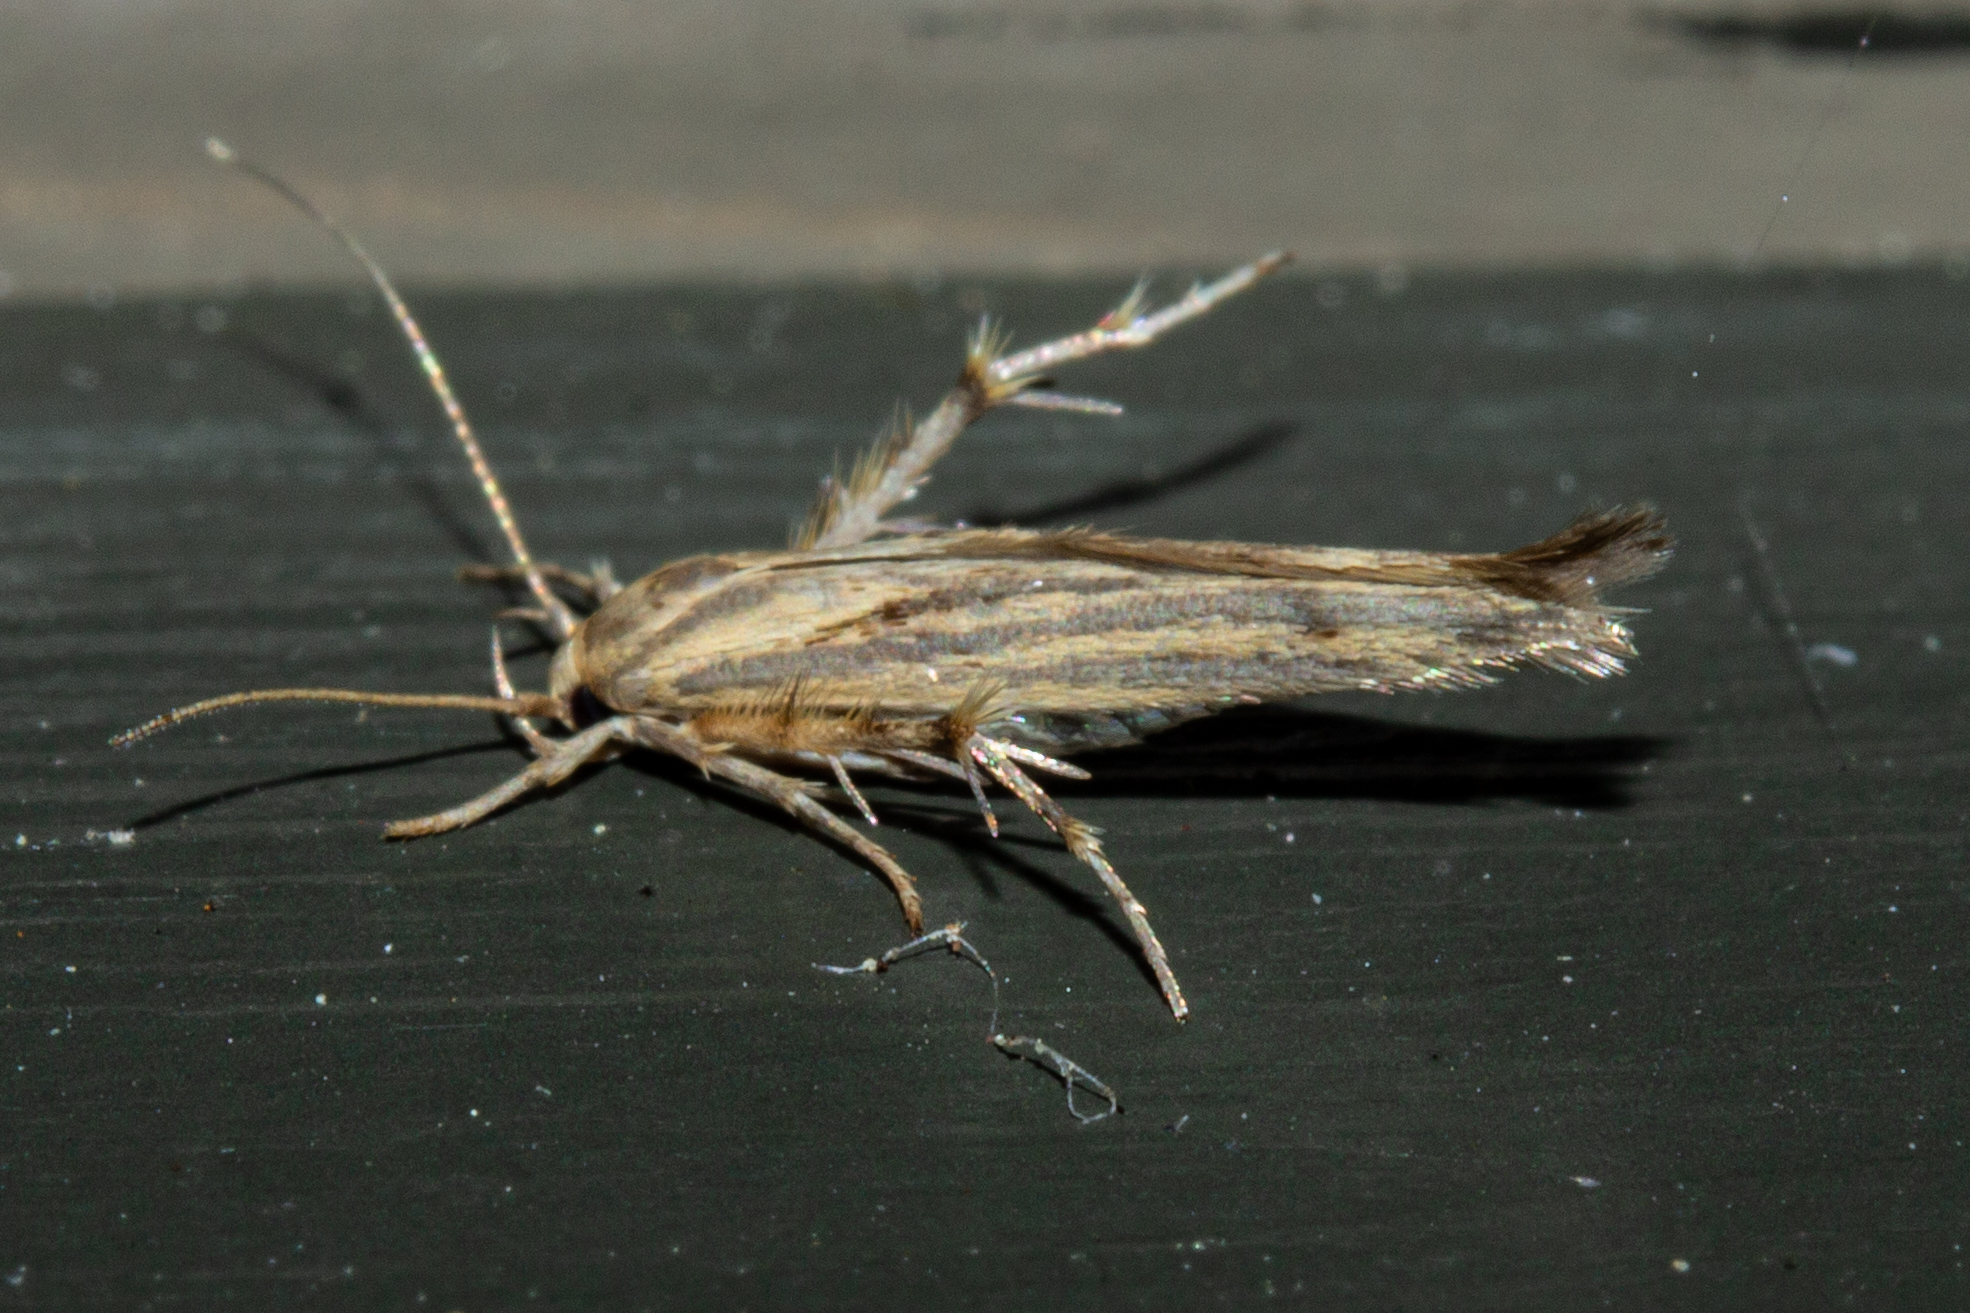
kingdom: Animalia
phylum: Arthropoda
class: Insecta
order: Lepidoptera
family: Stathmopodidae
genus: Stathmopoda
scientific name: Stathmopoda plumbiflua
